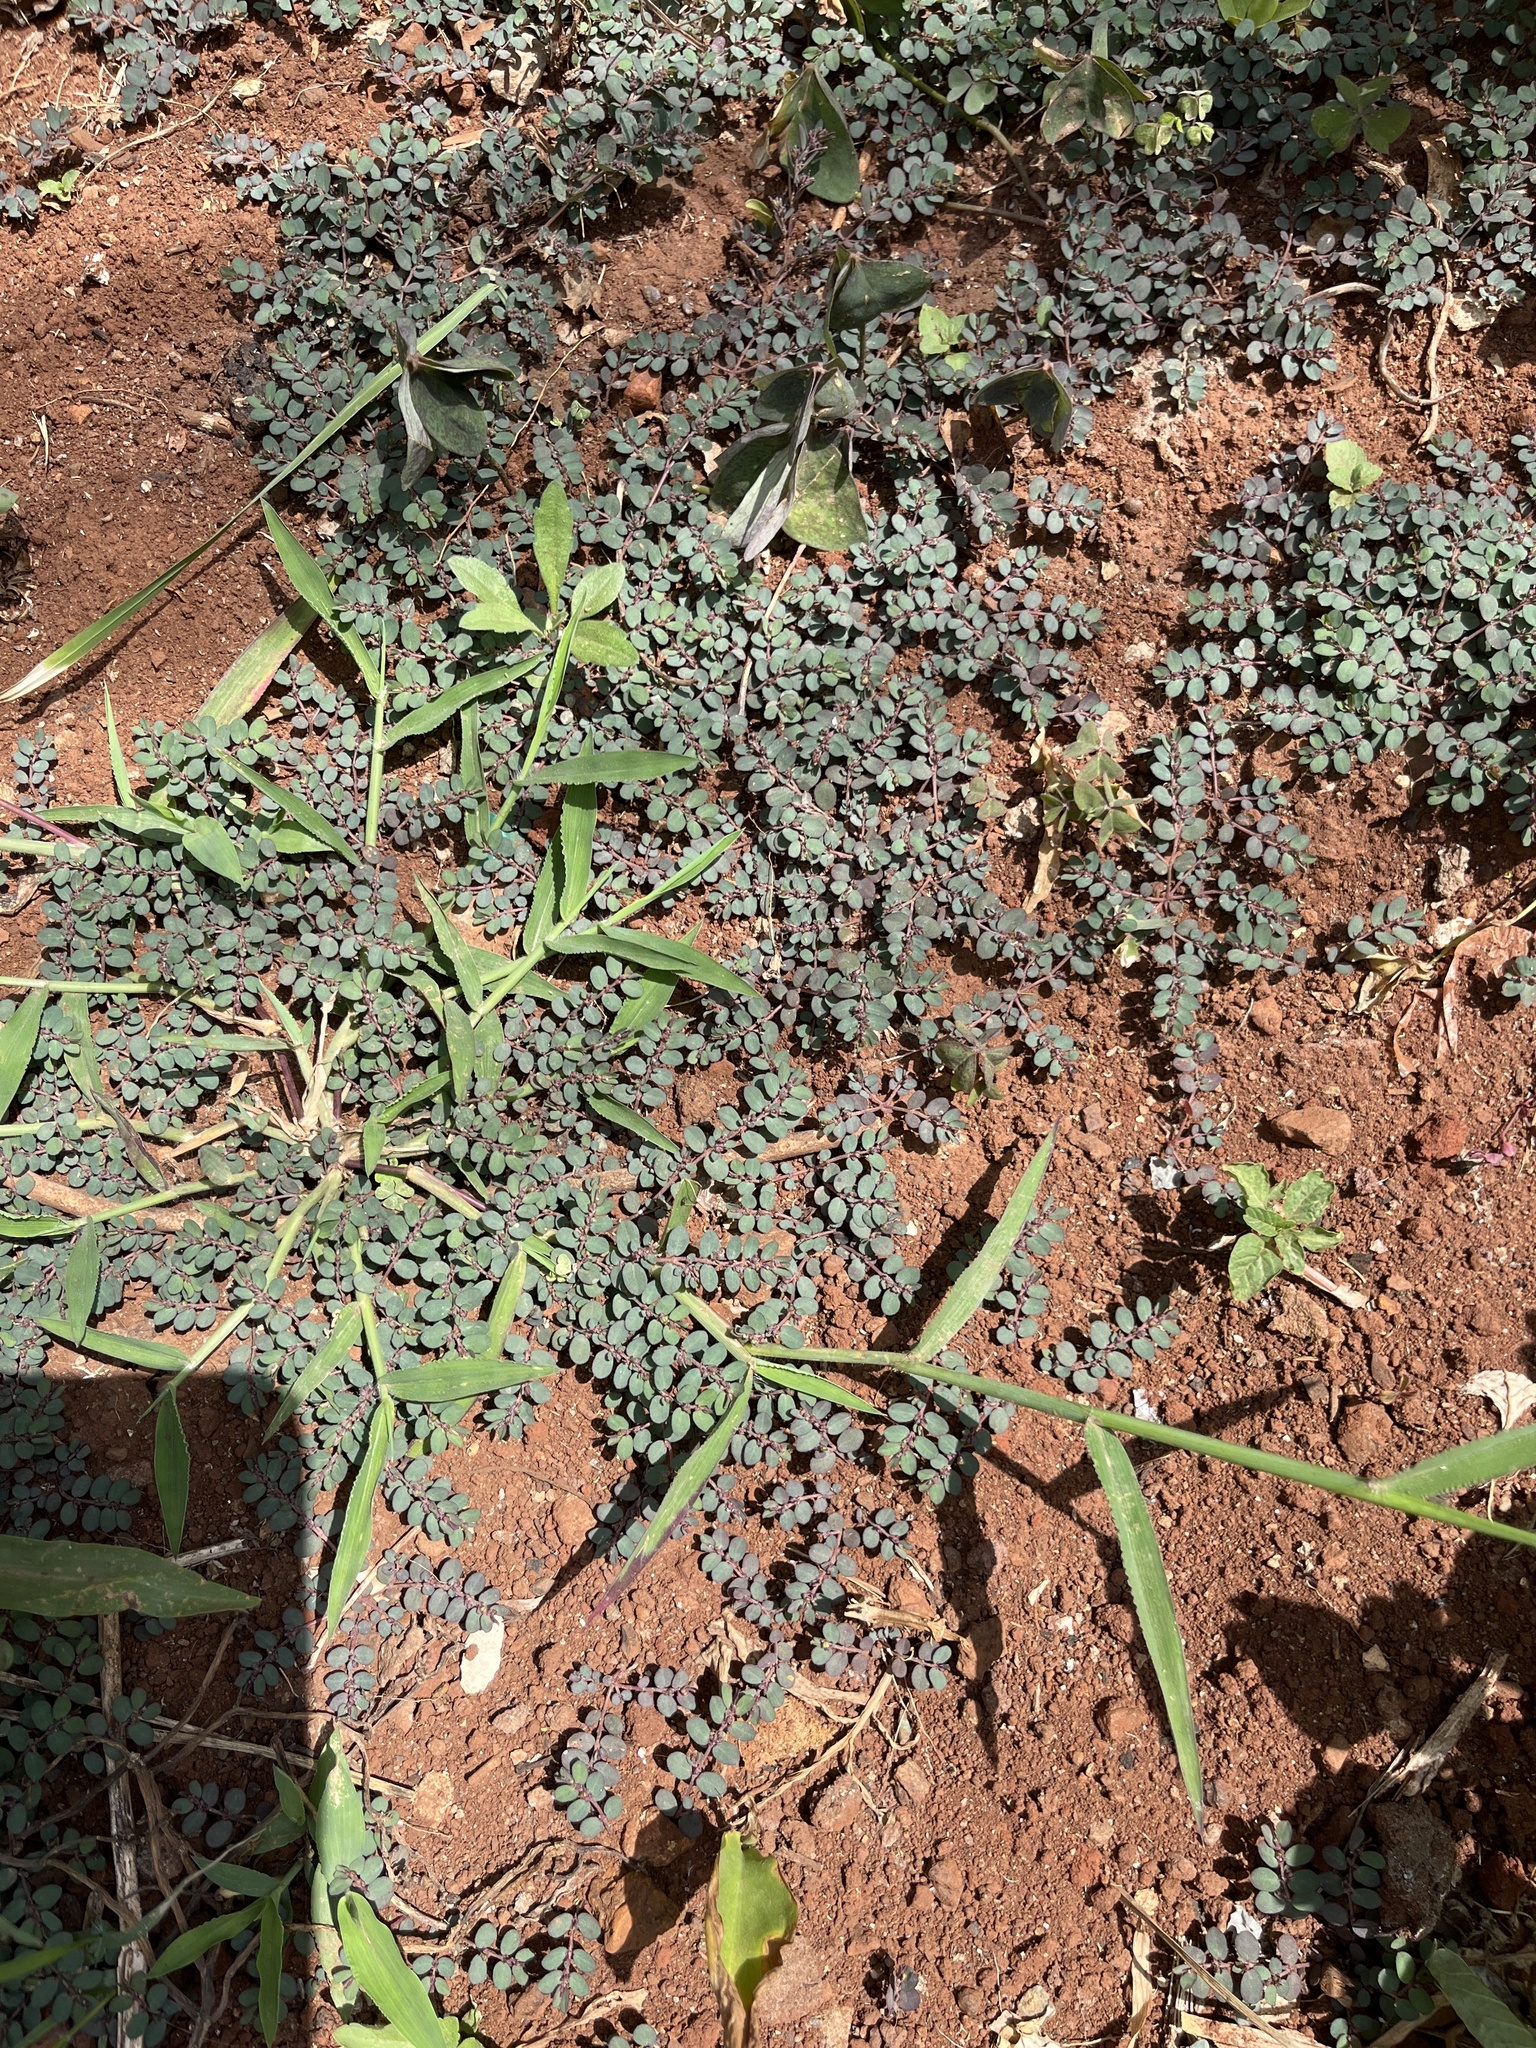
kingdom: Plantae
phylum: Tracheophyta
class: Magnoliopsida
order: Malpighiales
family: Euphorbiaceae
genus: Euphorbia
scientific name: Euphorbia prostrata
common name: Prostrate sandmat
